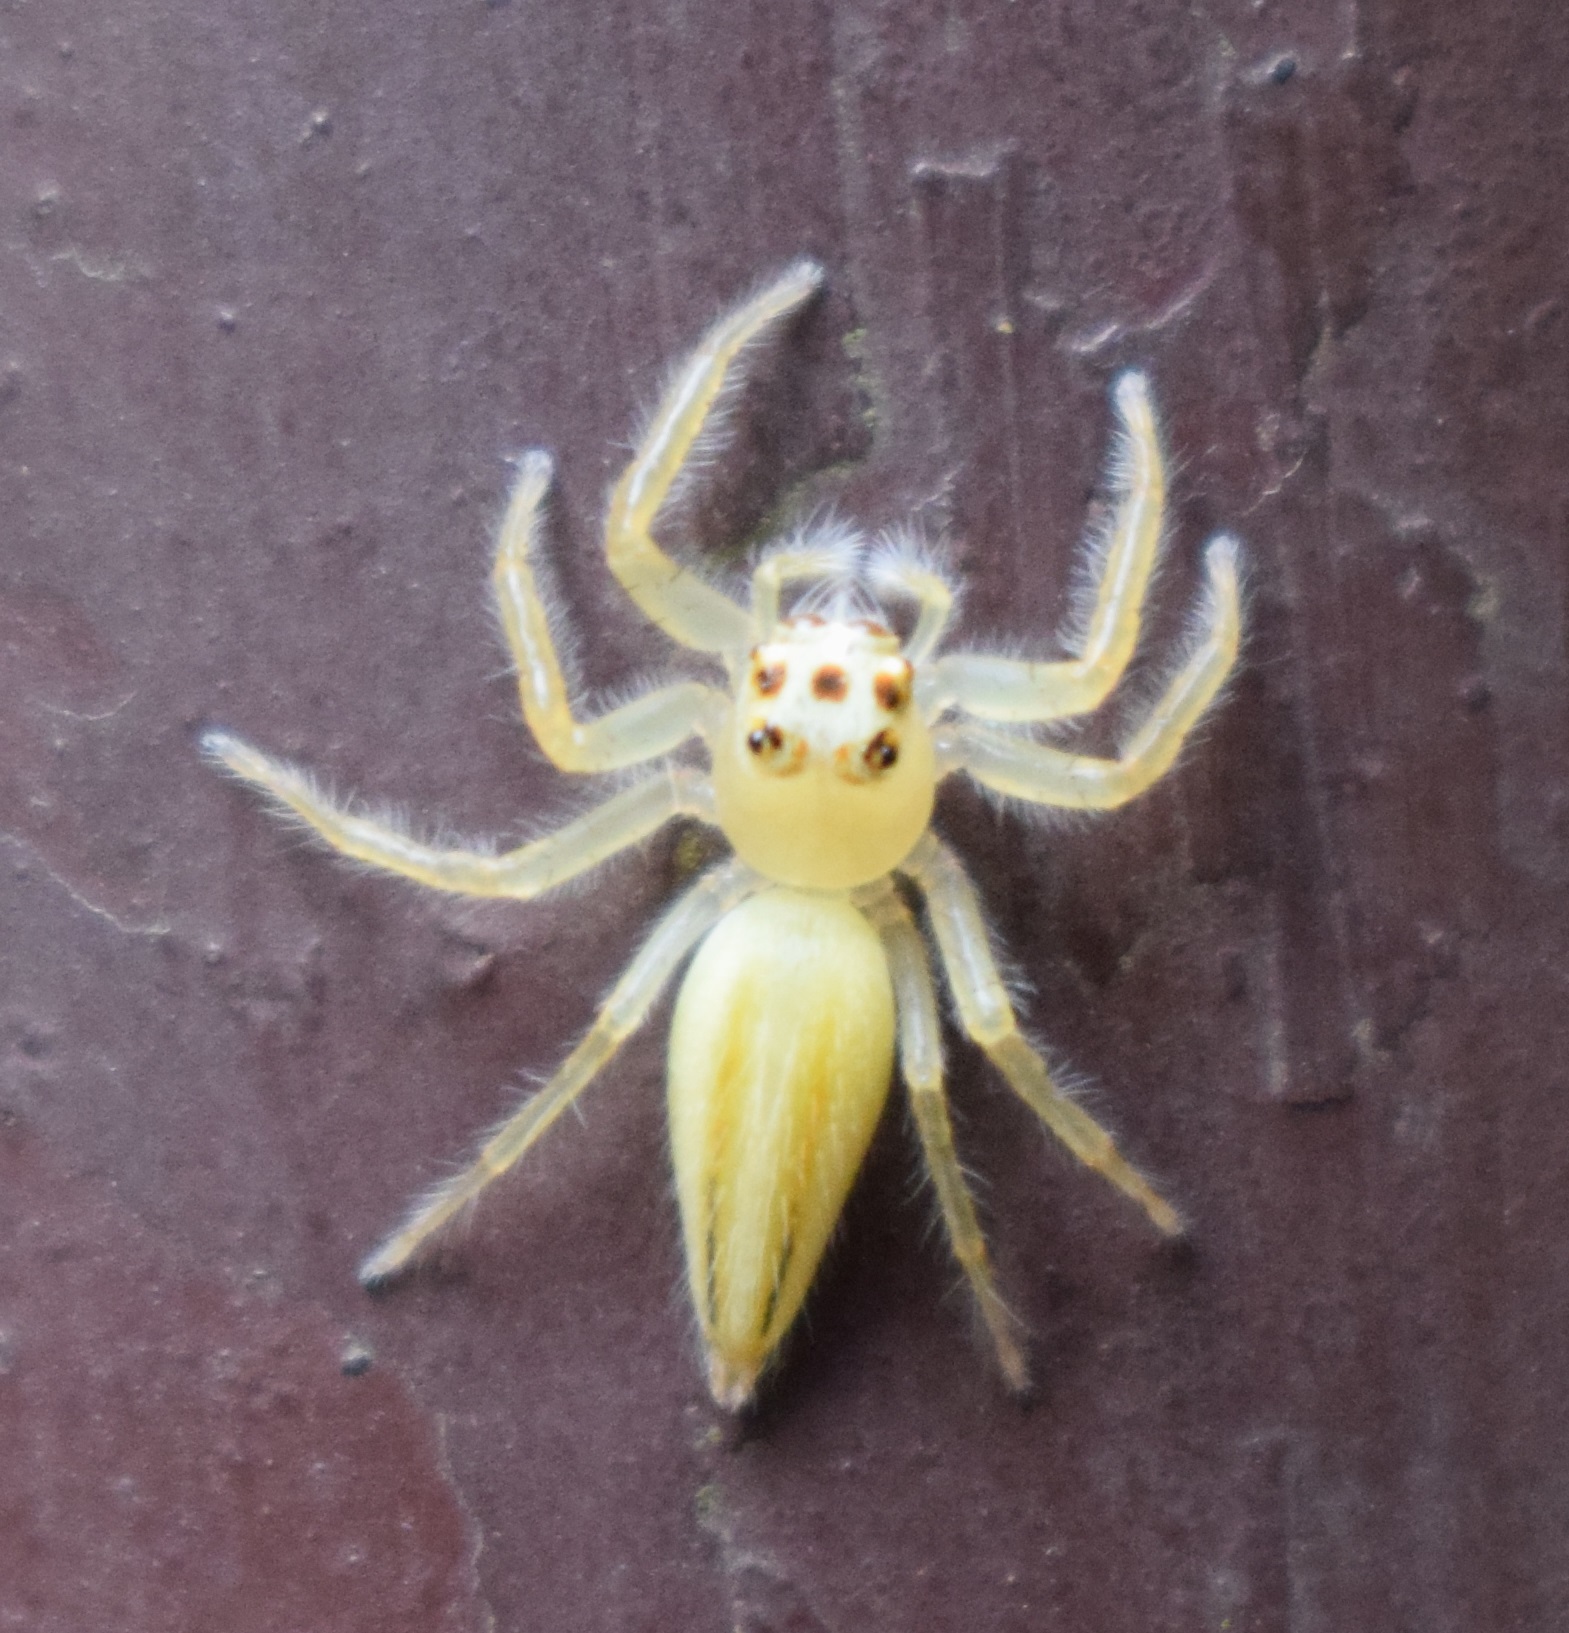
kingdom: Animalia
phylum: Arthropoda
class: Arachnida
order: Araneae
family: Salticidae
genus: Telamonia
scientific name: Telamonia dimidiata
